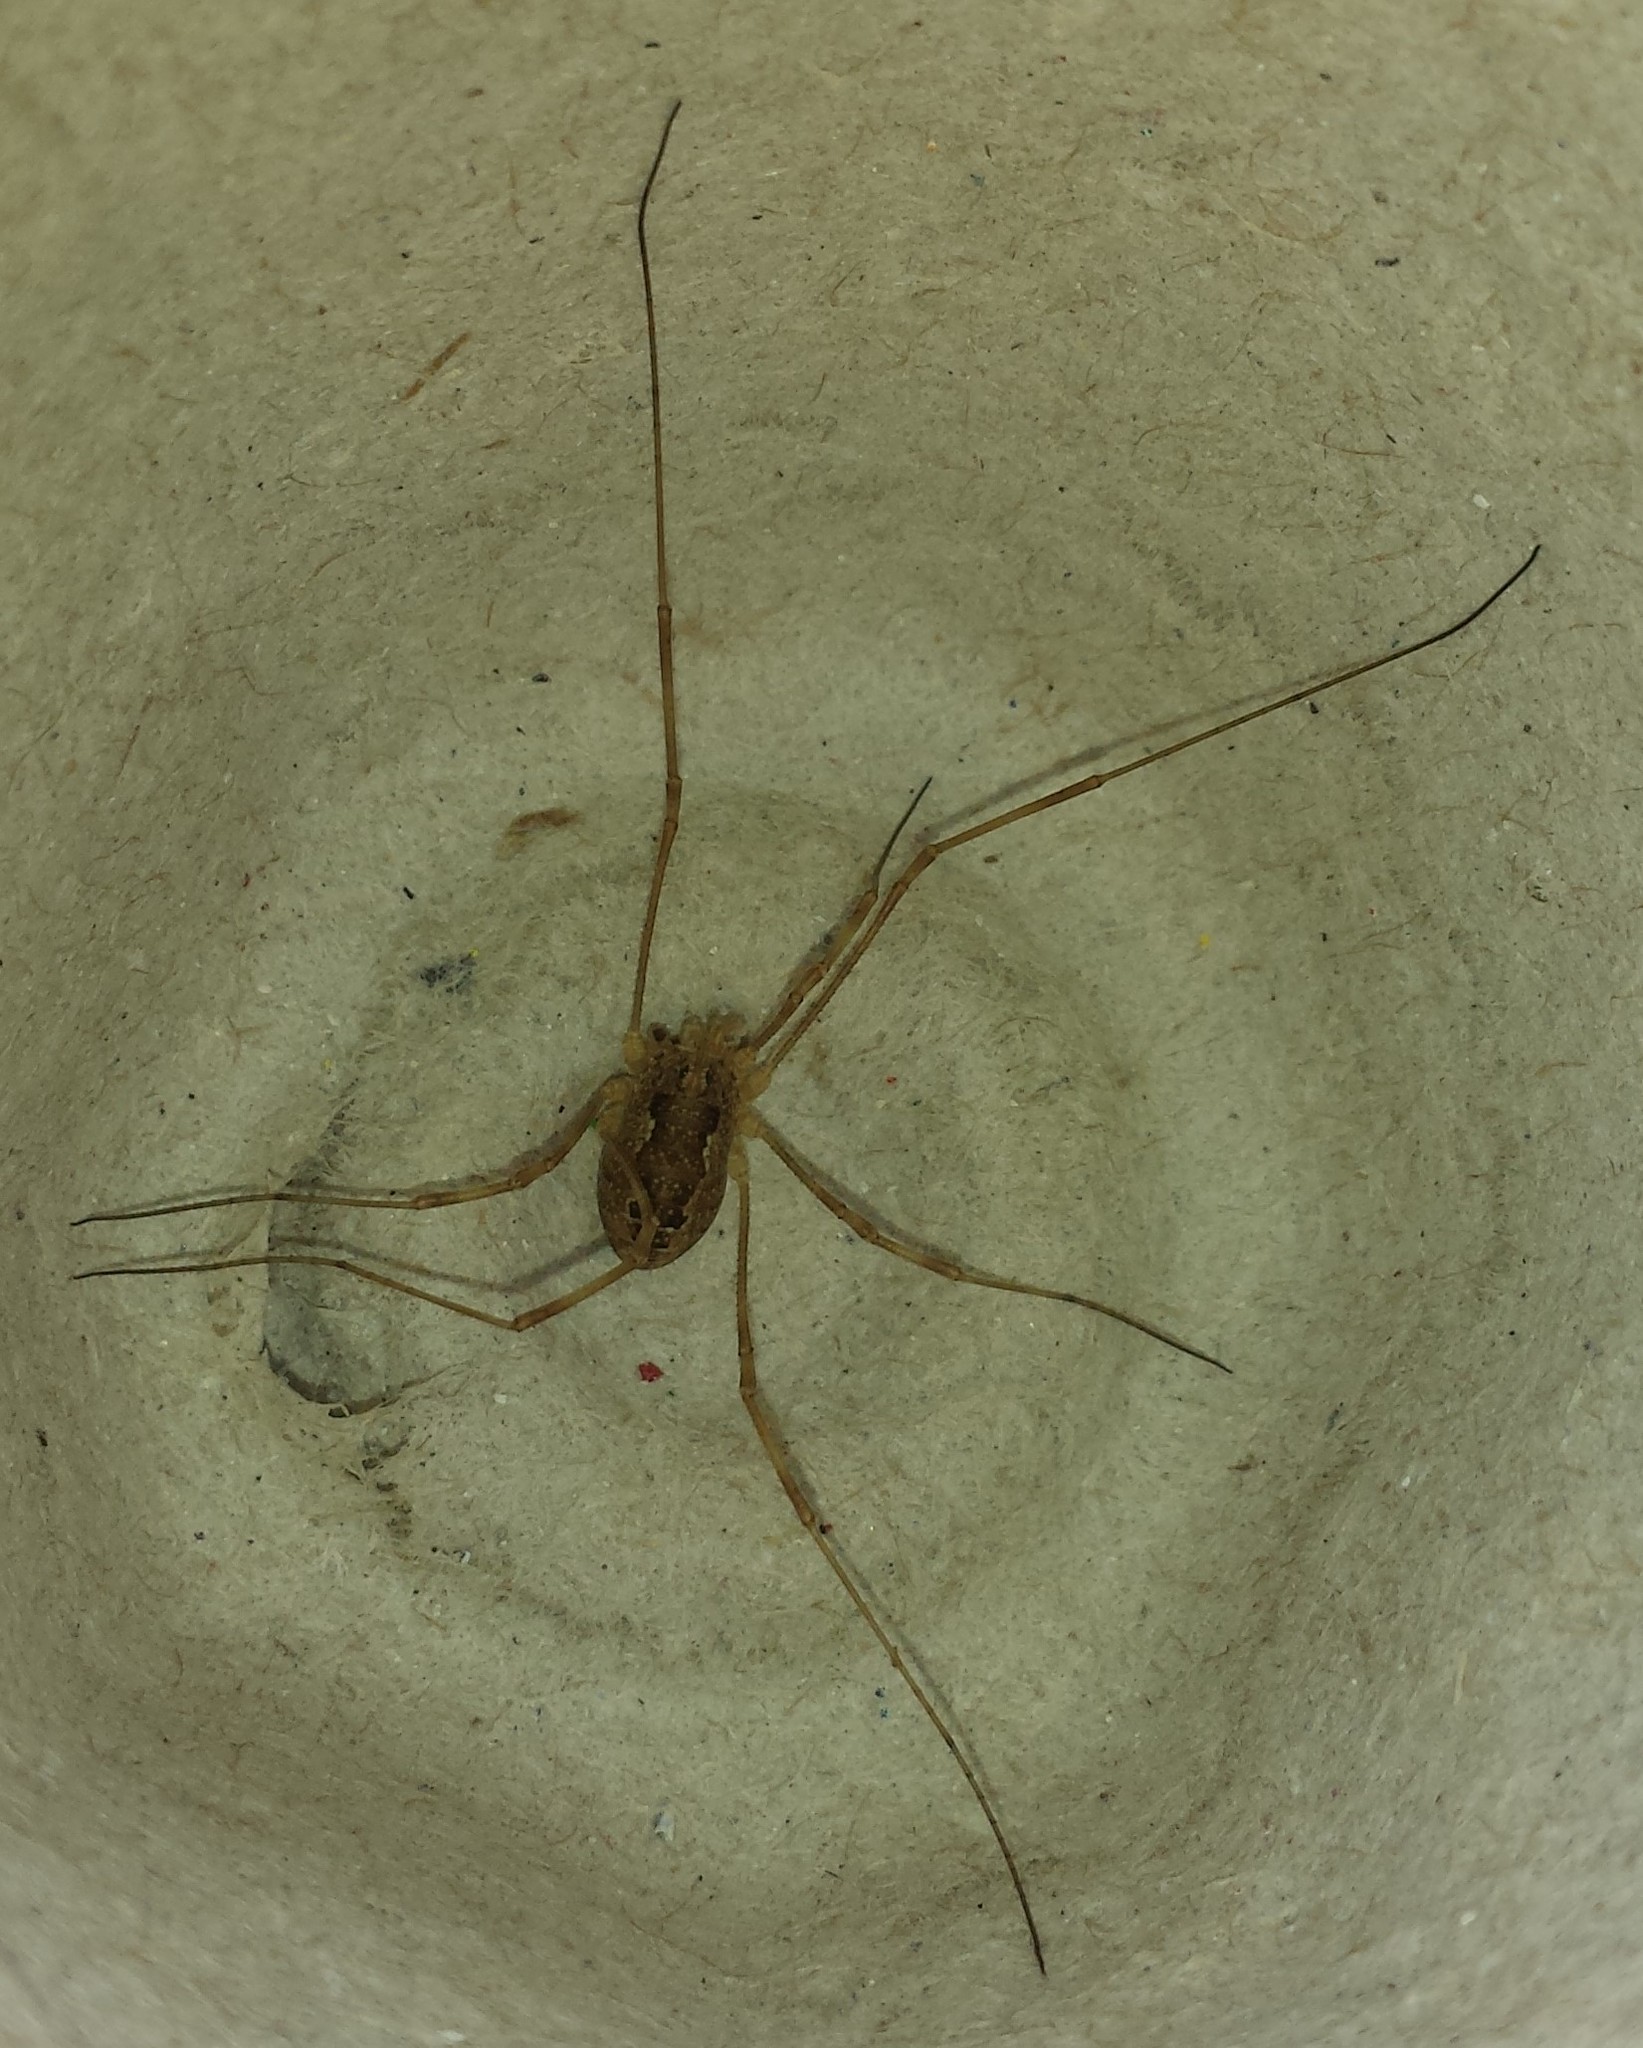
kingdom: Animalia
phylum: Arthropoda
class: Arachnida
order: Opiliones
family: Phalangiidae
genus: Rilaena
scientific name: Rilaena triangularis
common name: Spring harvestman
